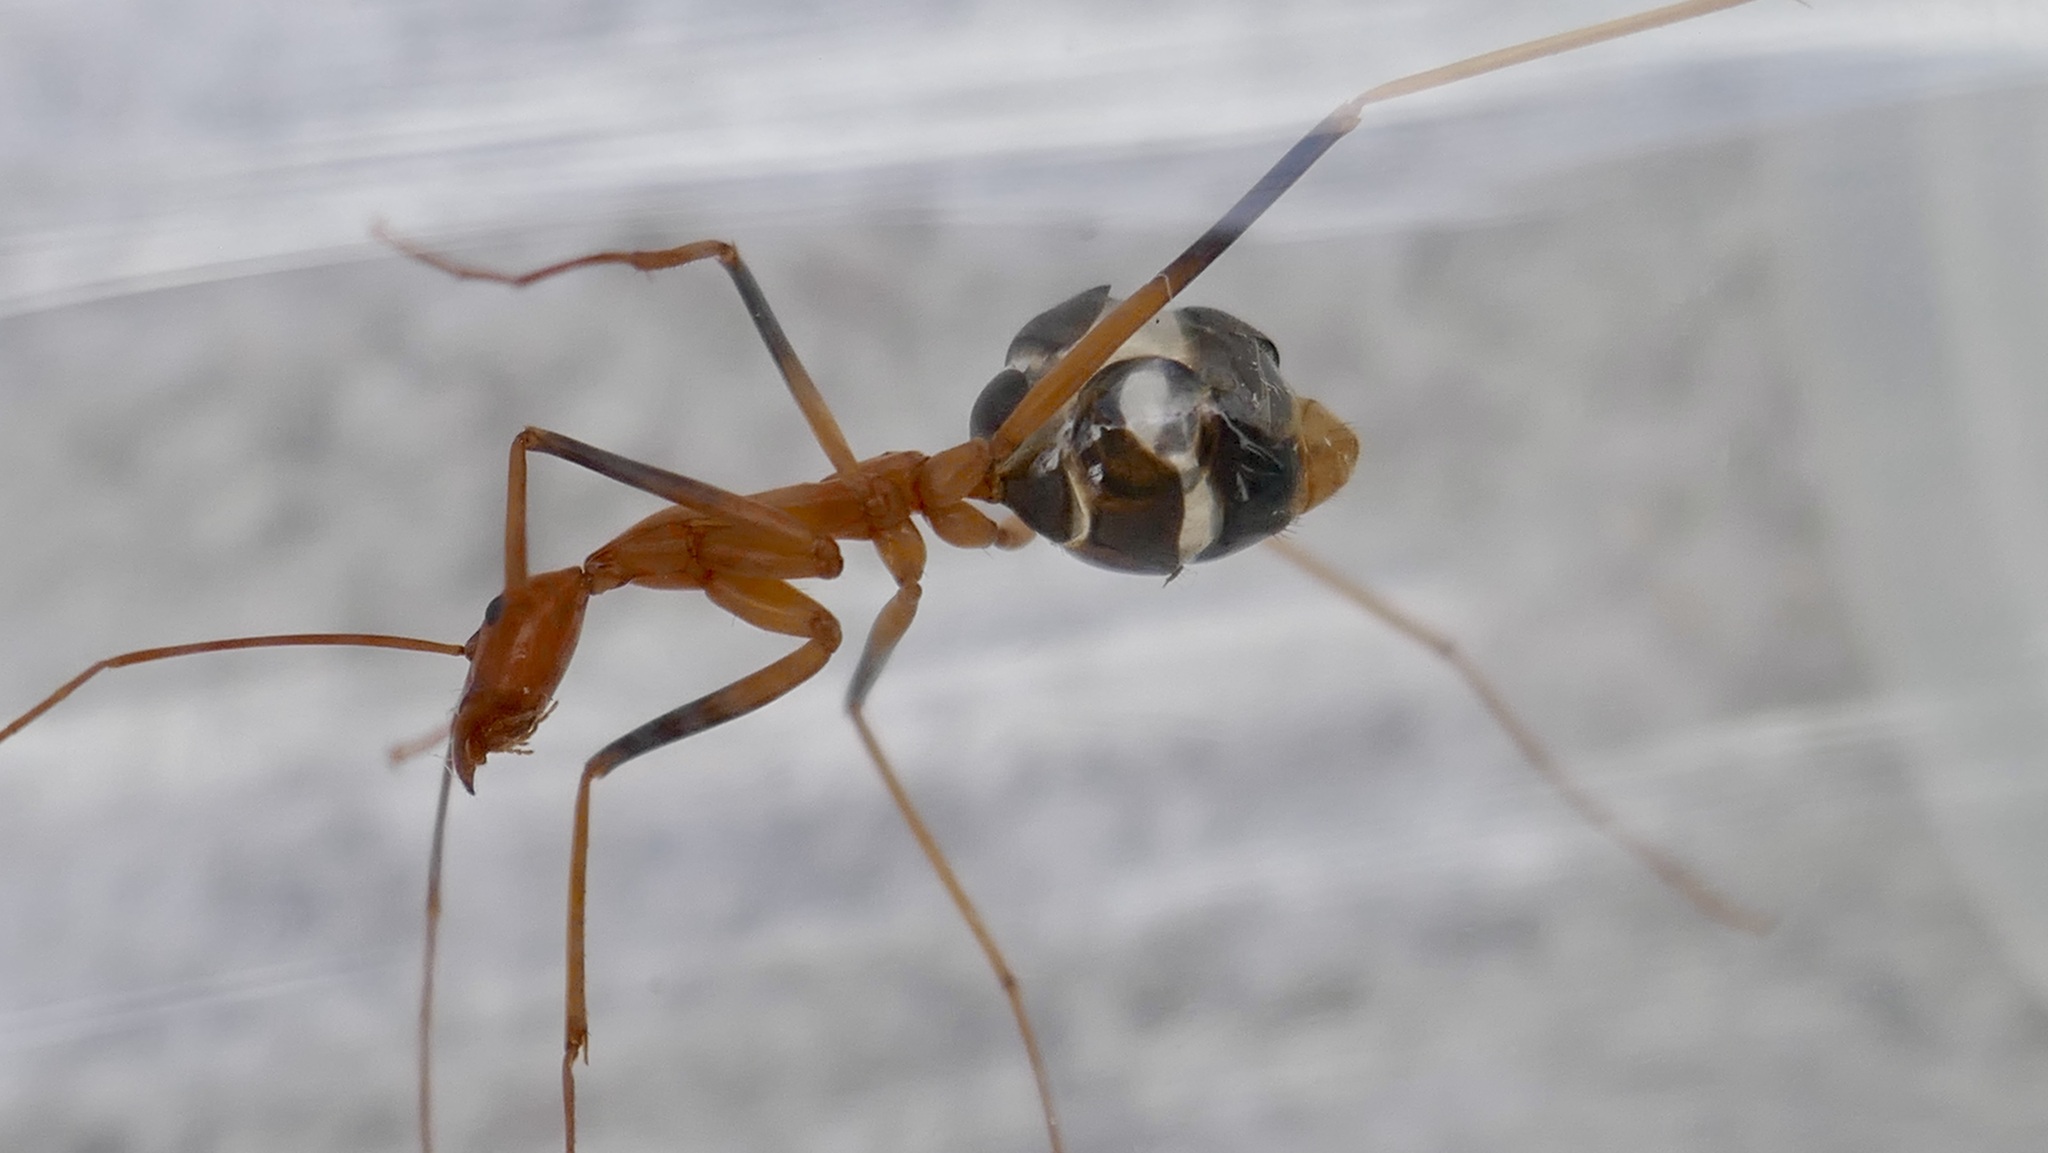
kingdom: Animalia
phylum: Arthropoda
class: Insecta
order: Hymenoptera
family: Formicidae
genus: Leptomyrmex
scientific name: Leptomyrmex rufipes
